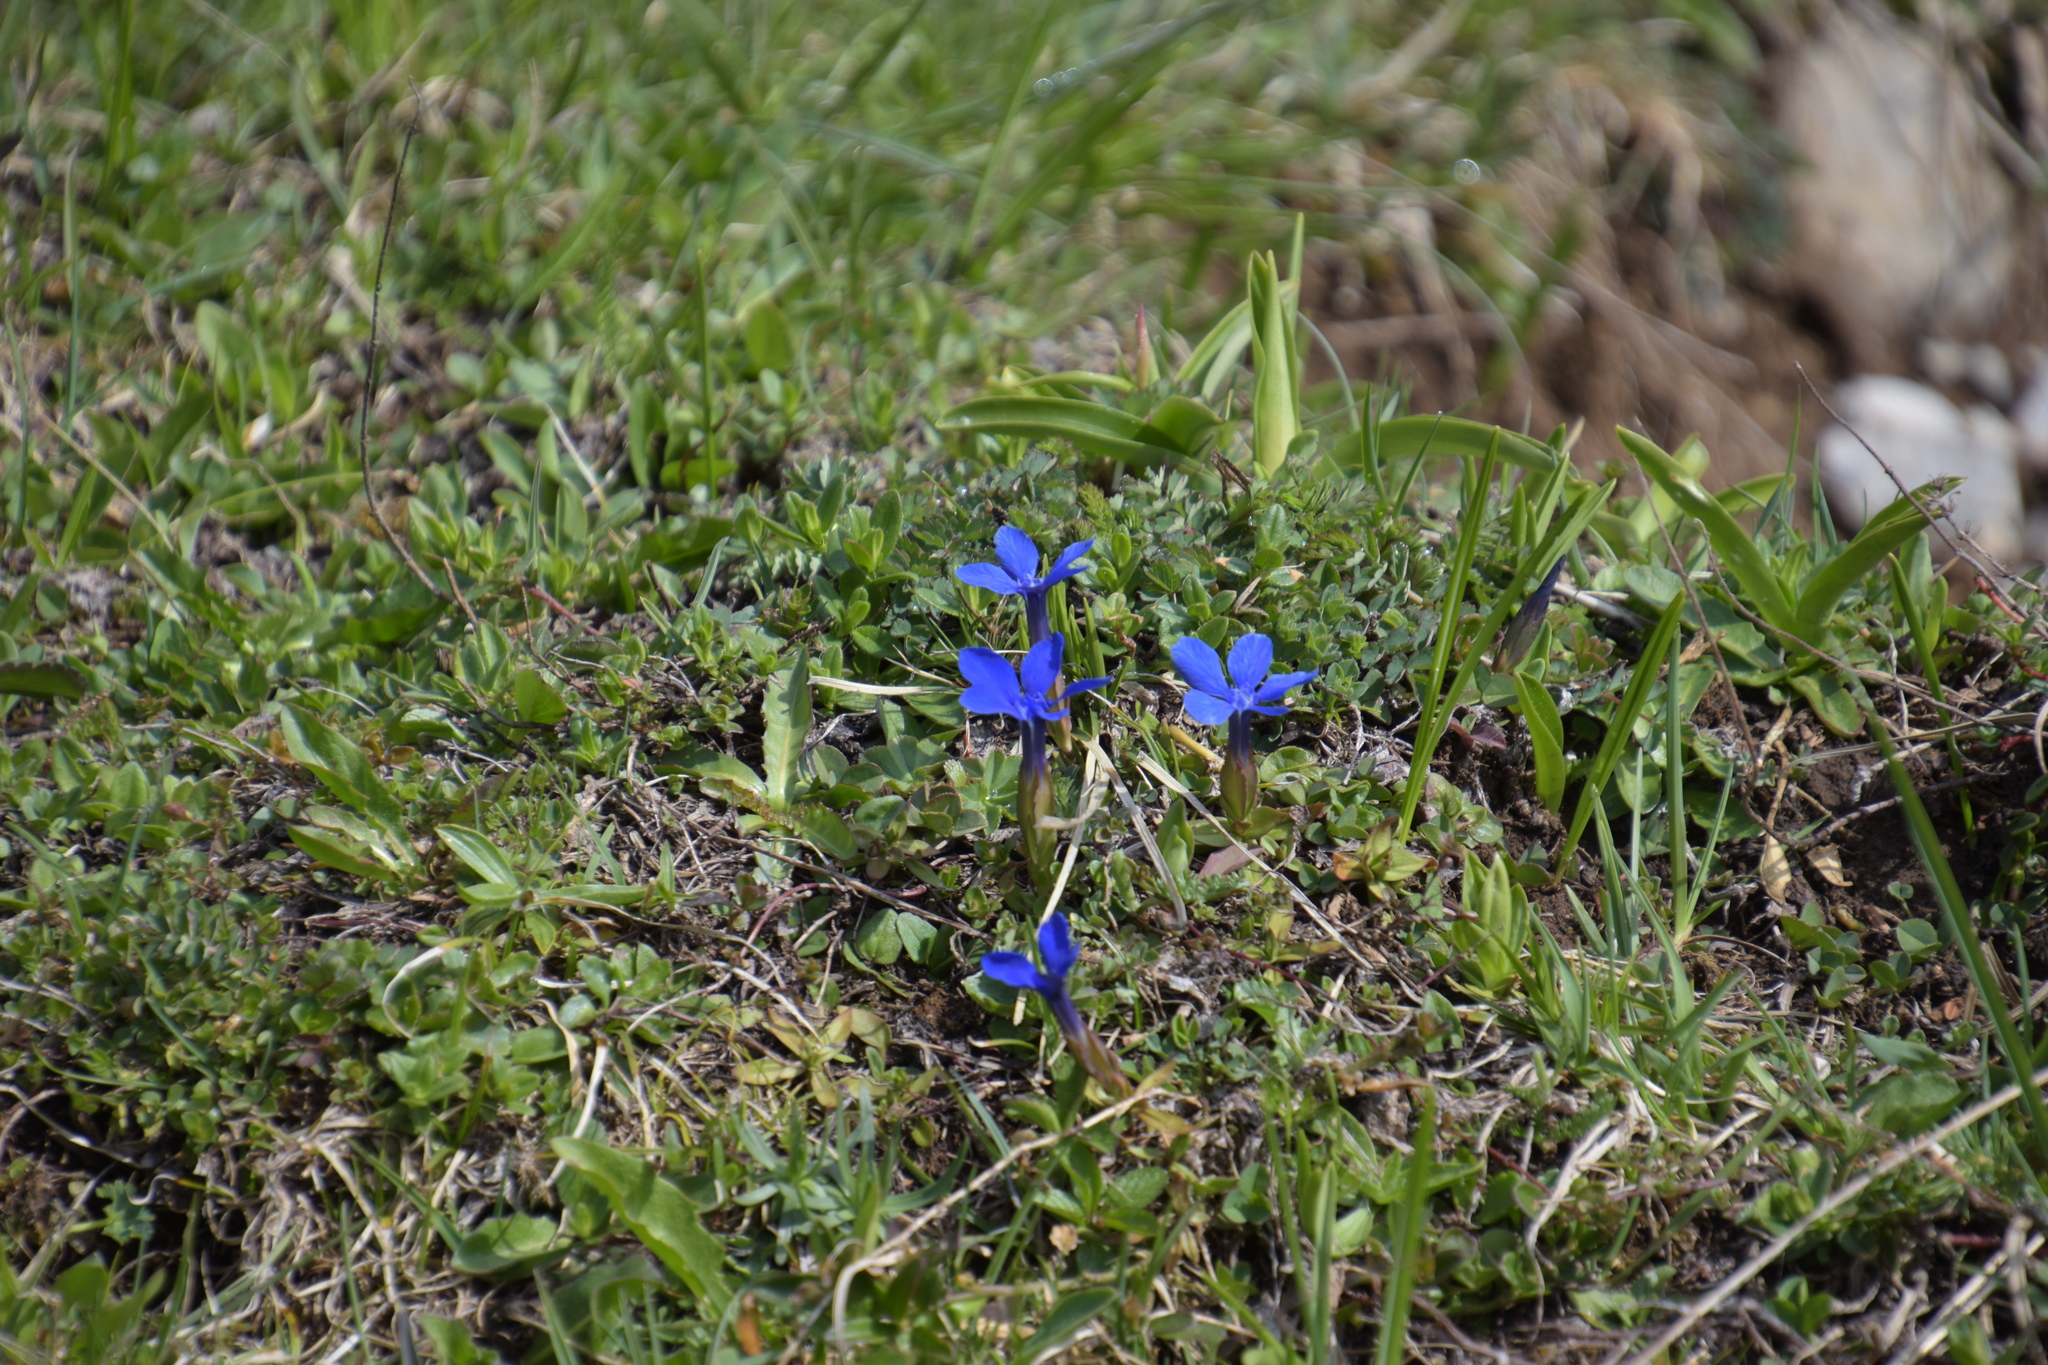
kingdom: Plantae
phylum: Tracheophyta
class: Magnoliopsida
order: Gentianales
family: Gentianaceae
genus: Gentiana
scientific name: Gentiana verna
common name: Spring gentian
